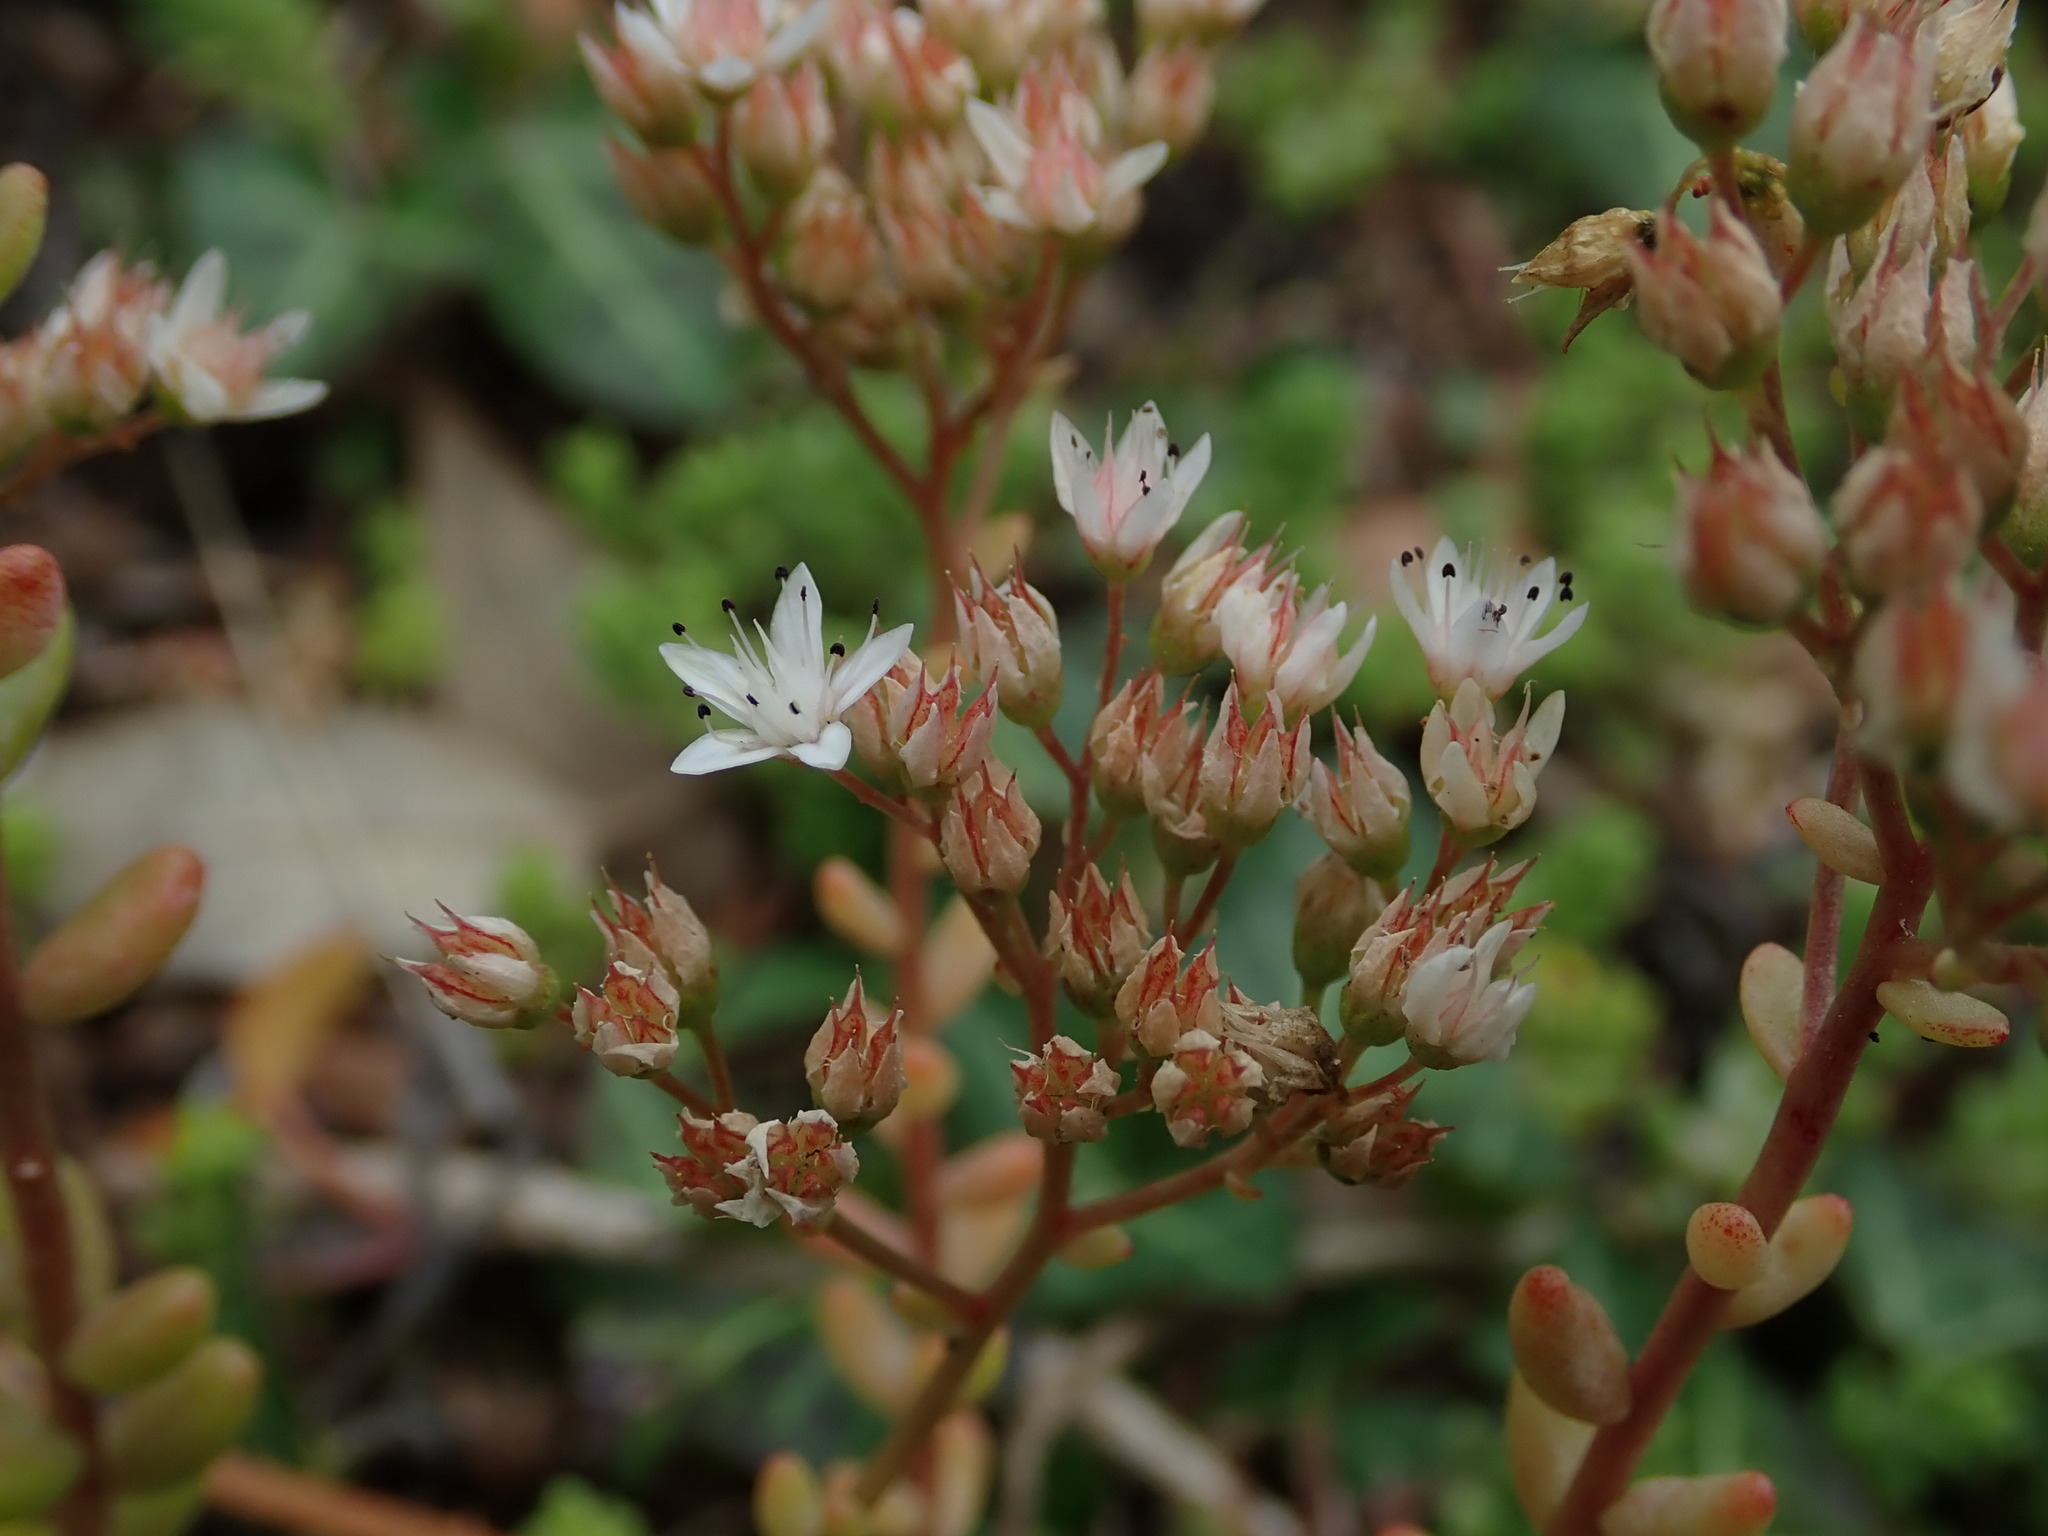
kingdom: Plantae
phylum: Tracheophyta
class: Magnoliopsida
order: Saxifragales
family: Crassulaceae
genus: Sedum
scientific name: Sedum album
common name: White stonecrop
